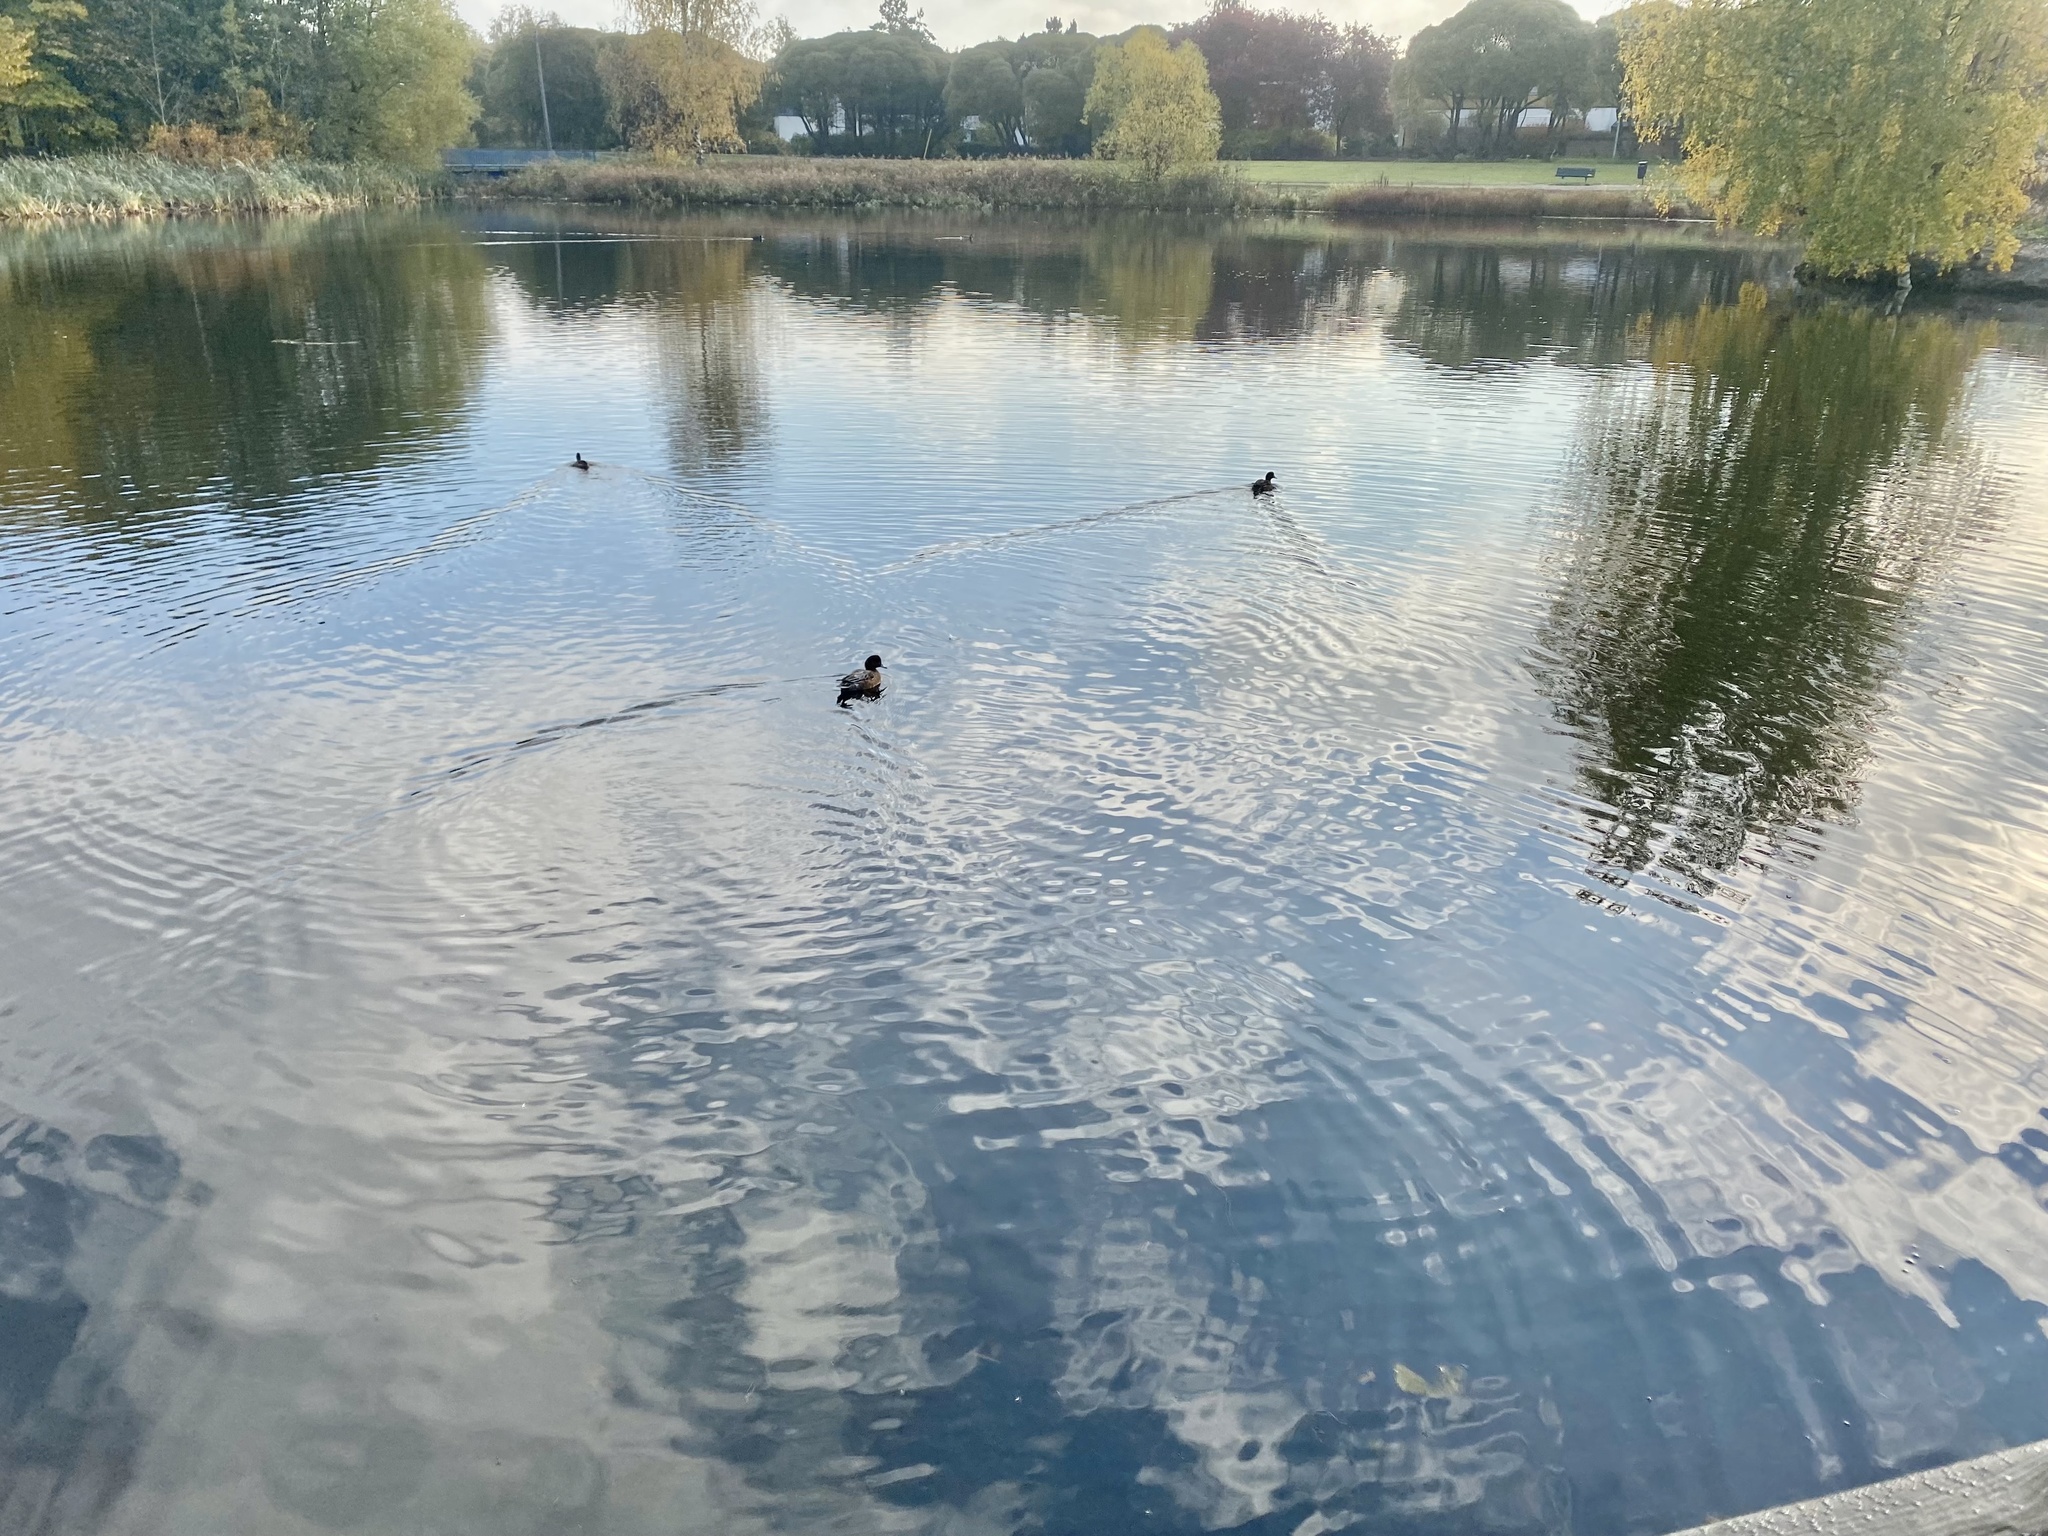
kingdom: Animalia
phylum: Chordata
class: Aves
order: Anseriformes
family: Anatidae
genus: Mareca
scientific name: Mareca penelope
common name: Eurasian wigeon
